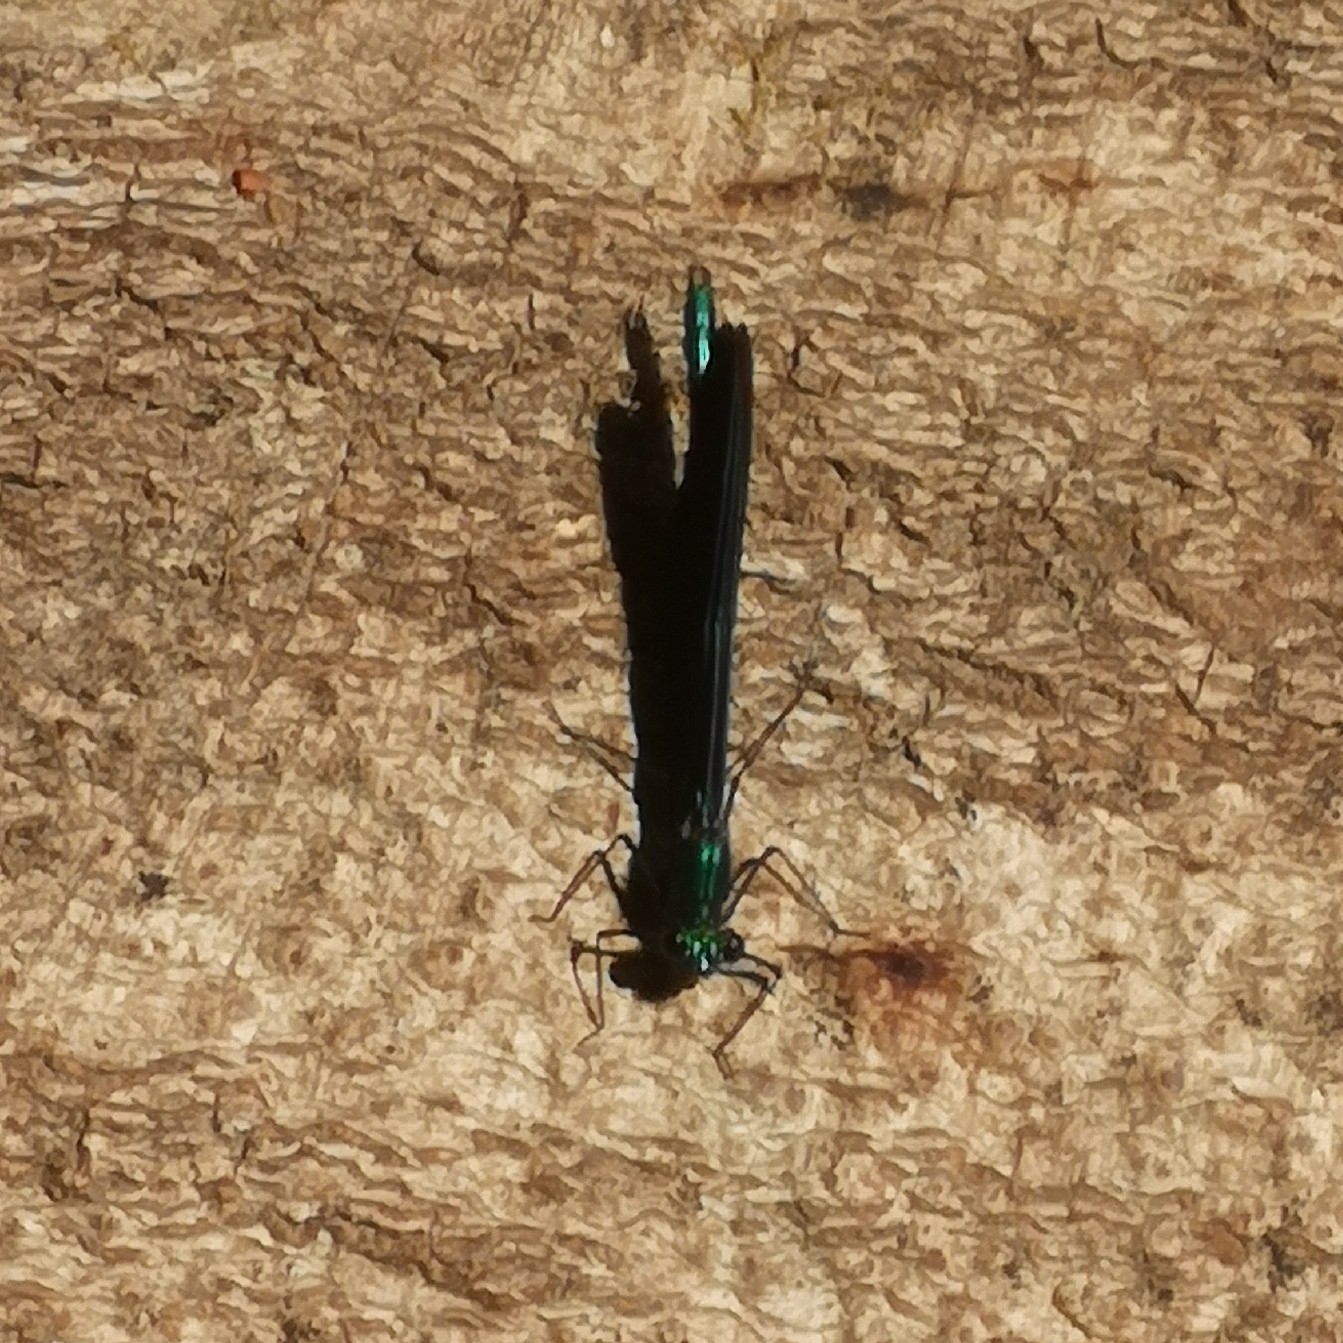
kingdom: Animalia
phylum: Arthropoda
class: Insecta
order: Odonata
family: Calopterygidae
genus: Calopteryx
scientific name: Calopteryx virgo
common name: Beautiful demoiselle
